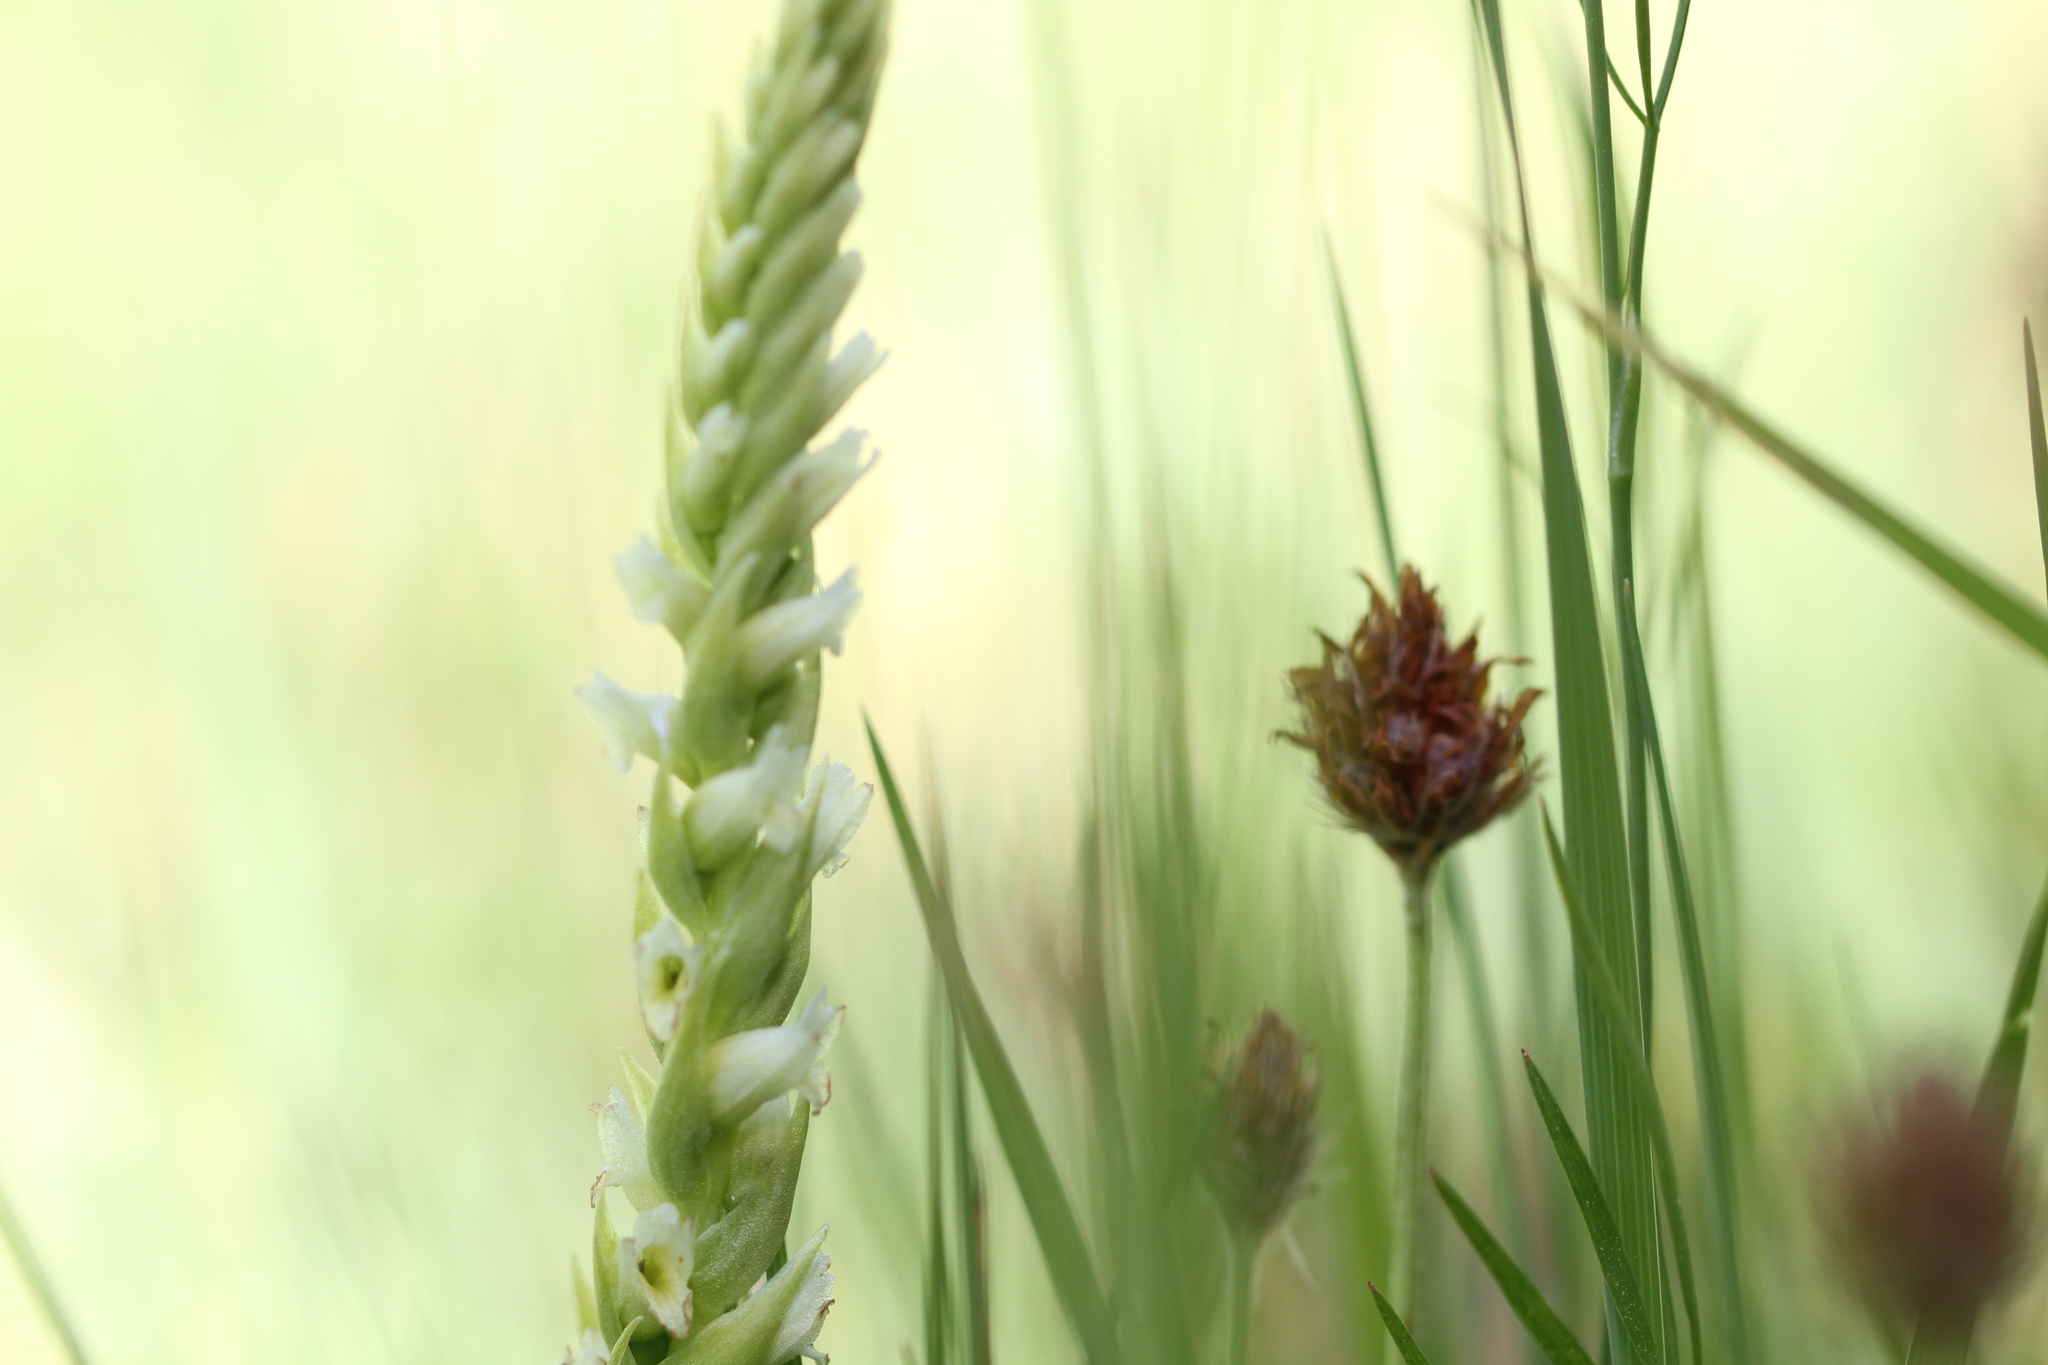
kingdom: Plantae
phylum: Tracheophyta
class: Liliopsida
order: Asparagales
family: Orchidaceae
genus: Spiranthes
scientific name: Spiranthes romanzoffiana
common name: Irish lady's-tresses
